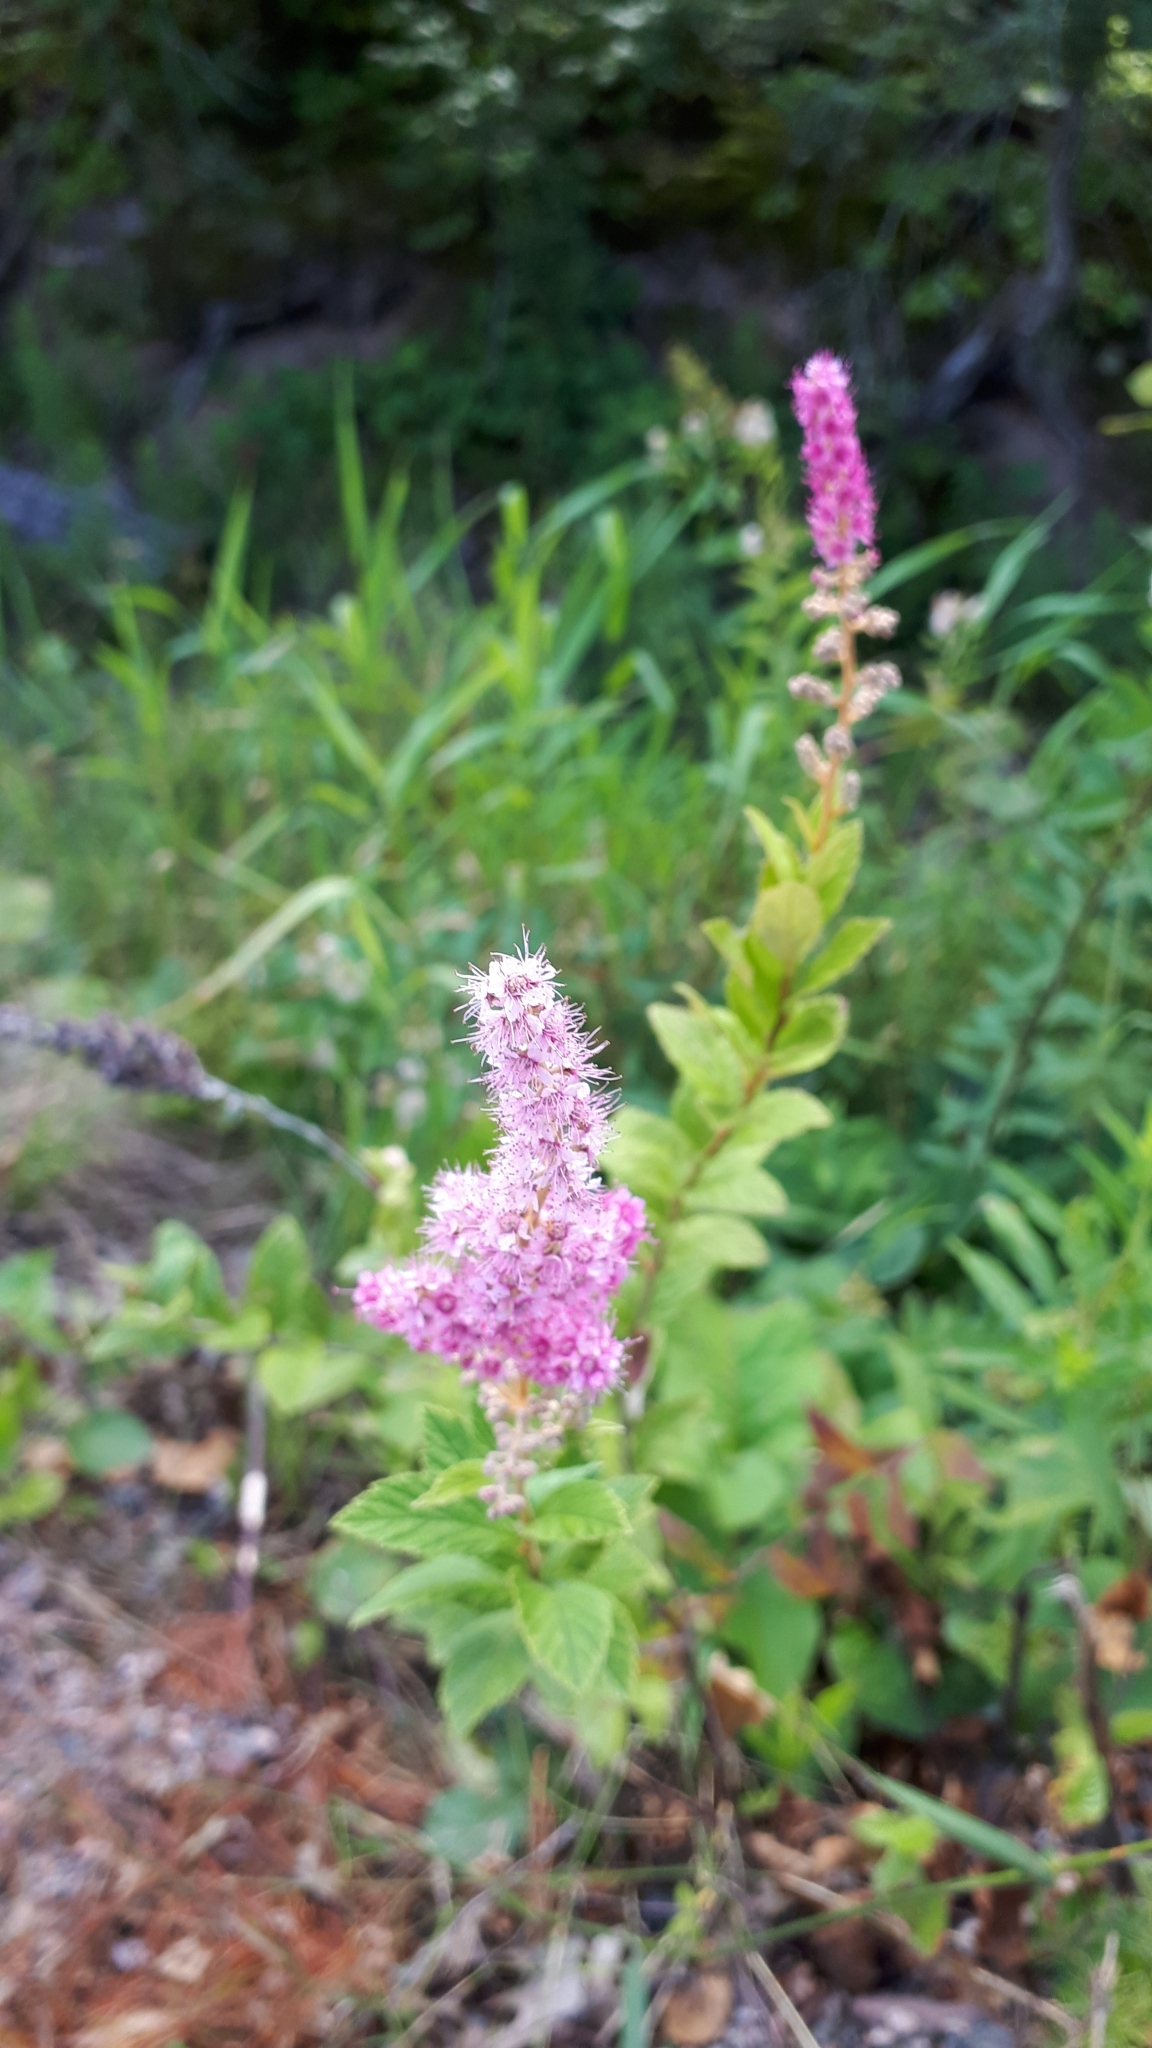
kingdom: Plantae
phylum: Tracheophyta
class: Magnoliopsida
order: Rosales
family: Rosaceae
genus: Spiraea
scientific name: Spiraea tomentosa
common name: Hardhack
